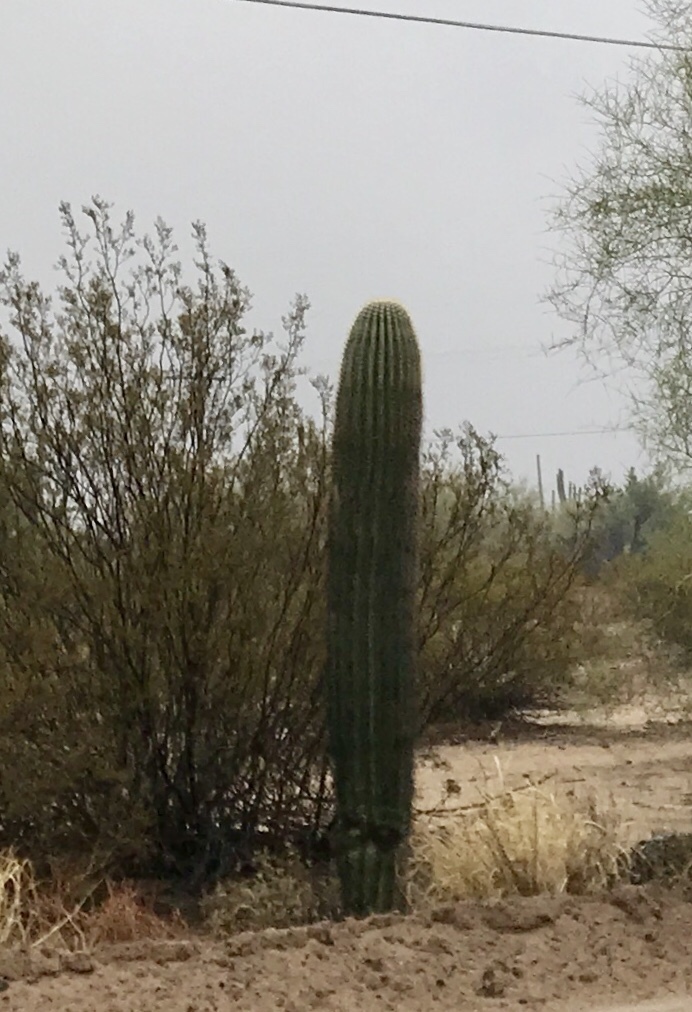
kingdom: Plantae
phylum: Tracheophyta
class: Magnoliopsida
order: Caryophyllales
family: Cactaceae
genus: Carnegiea
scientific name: Carnegiea gigantea
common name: Saguaro
